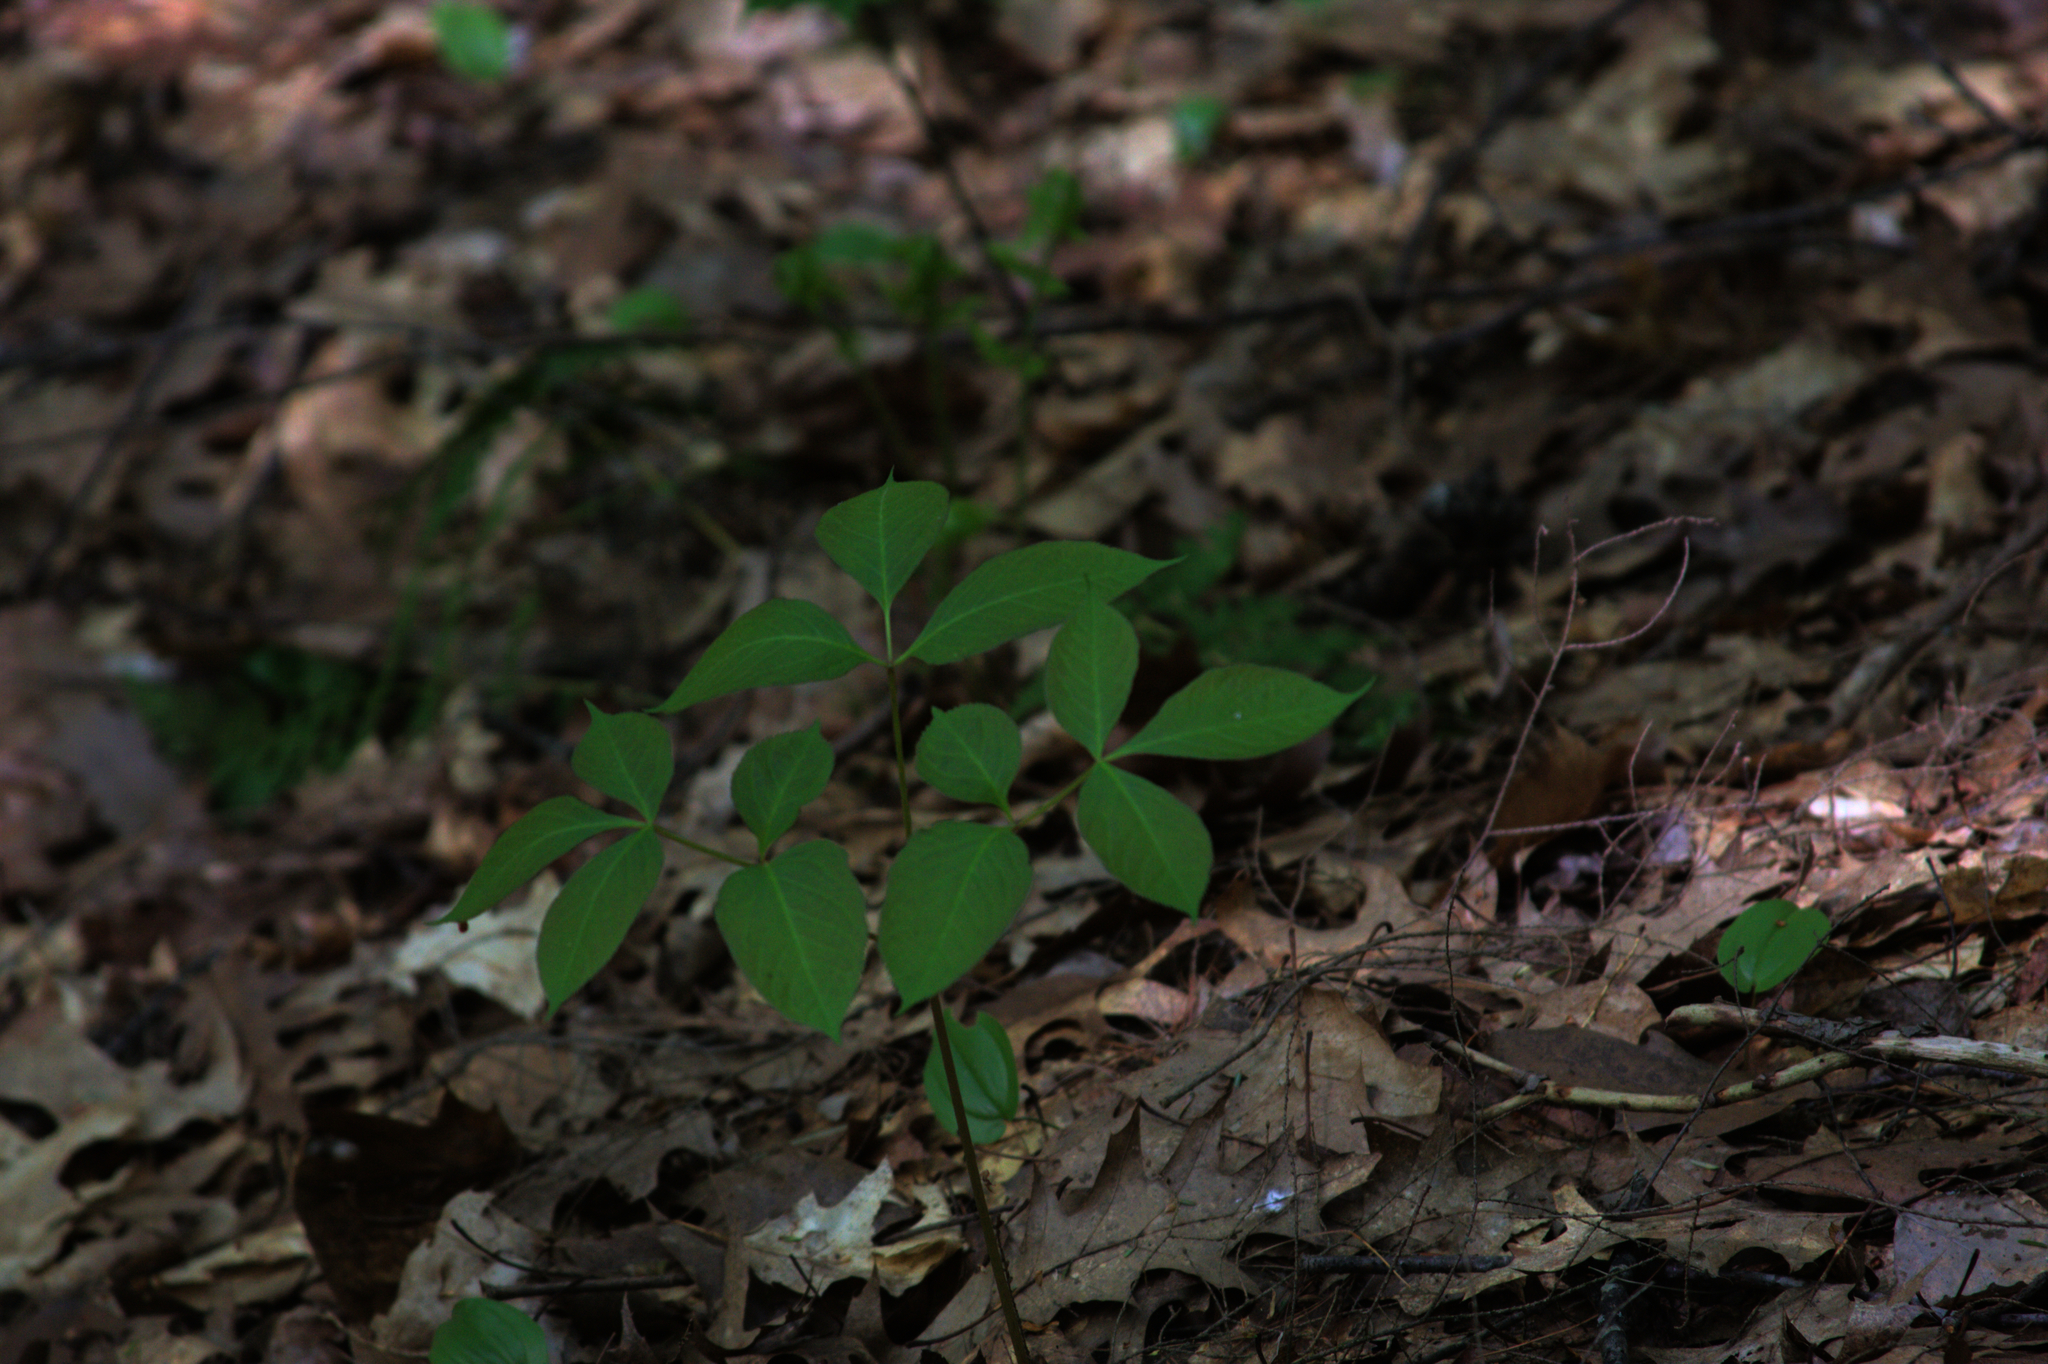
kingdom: Plantae
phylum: Tracheophyta
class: Magnoliopsida
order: Apiales
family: Araliaceae
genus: Aralia
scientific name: Aralia nudicaulis
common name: Wild sarsaparilla
